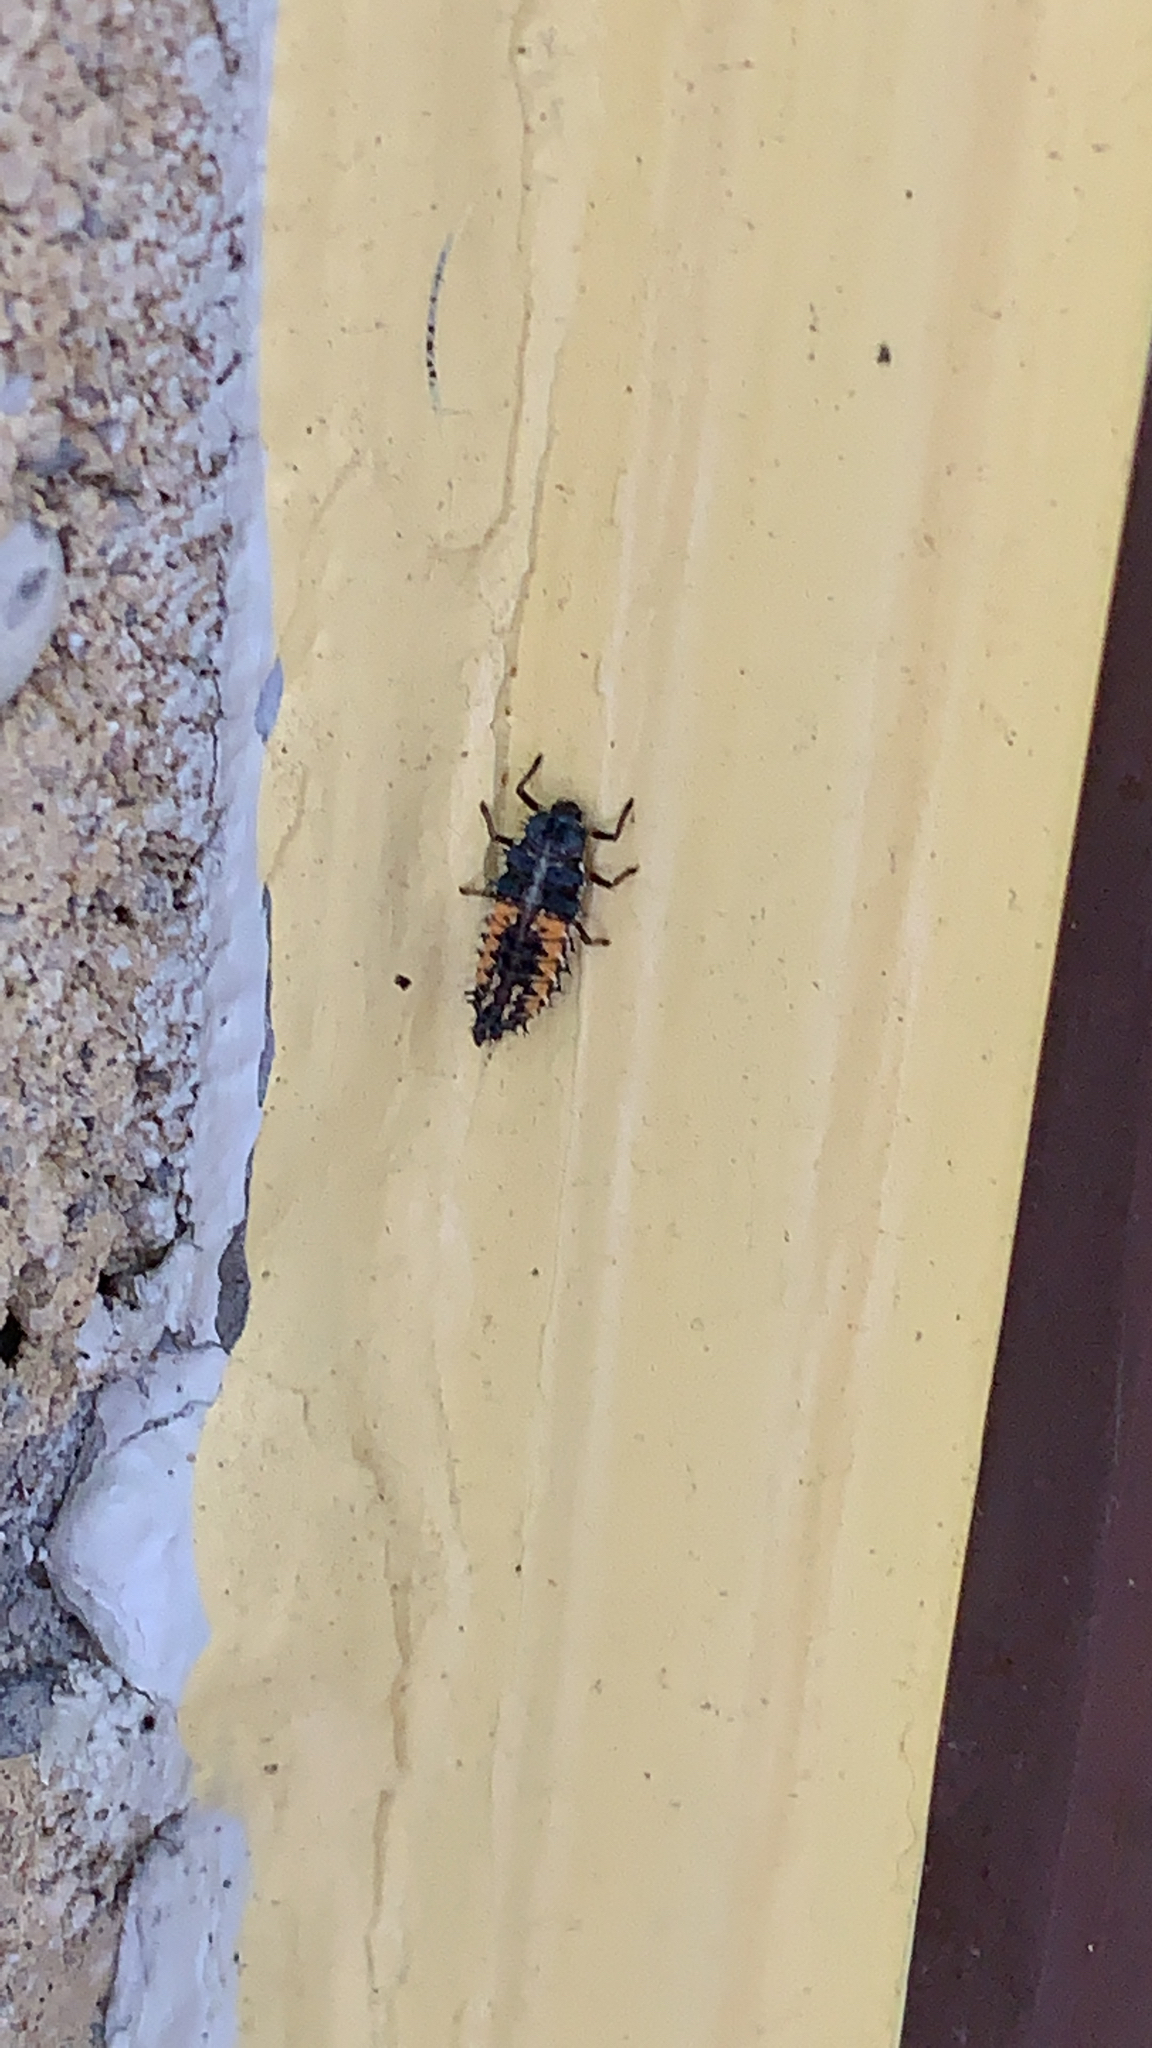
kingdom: Animalia
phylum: Arthropoda
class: Insecta
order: Coleoptera
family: Coccinellidae
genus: Harmonia
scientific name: Harmonia axyridis
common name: Harlequin ladybird
